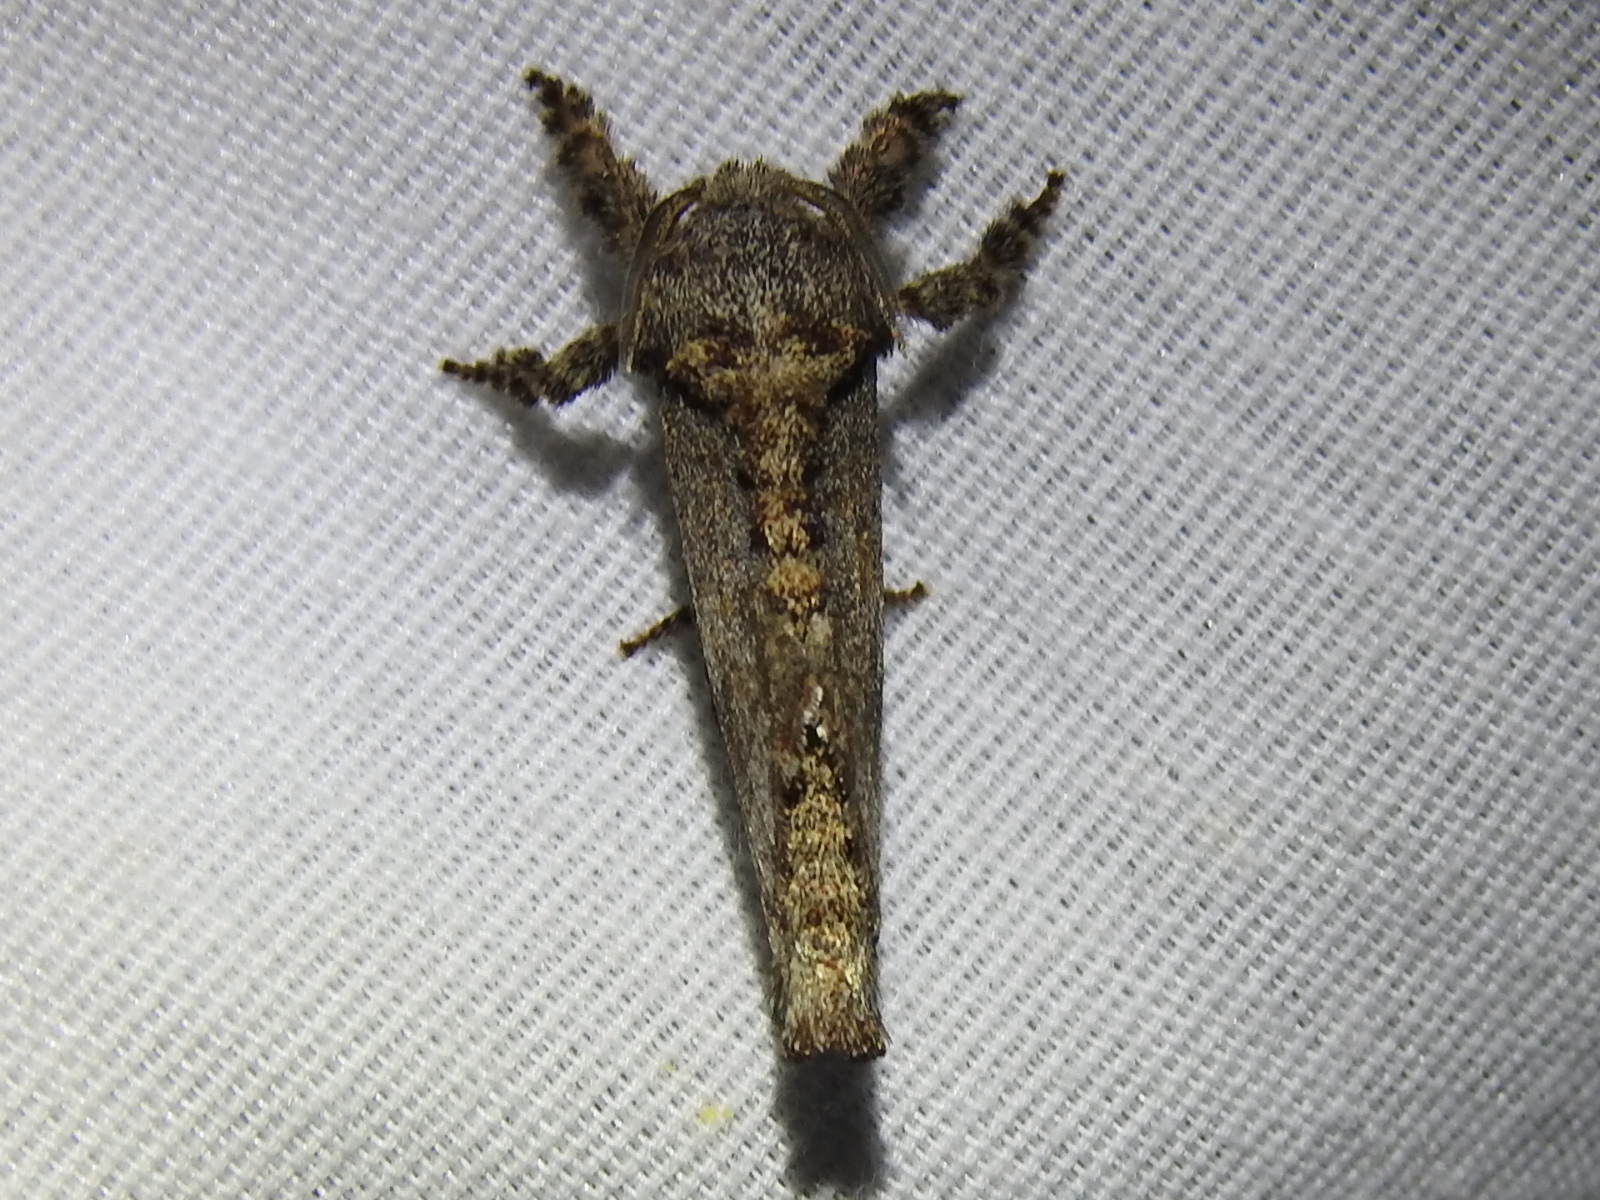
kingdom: Animalia
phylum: Arthropoda
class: Insecta
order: Lepidoptera
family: Cossidae
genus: Givira
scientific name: Givira arbeloides
